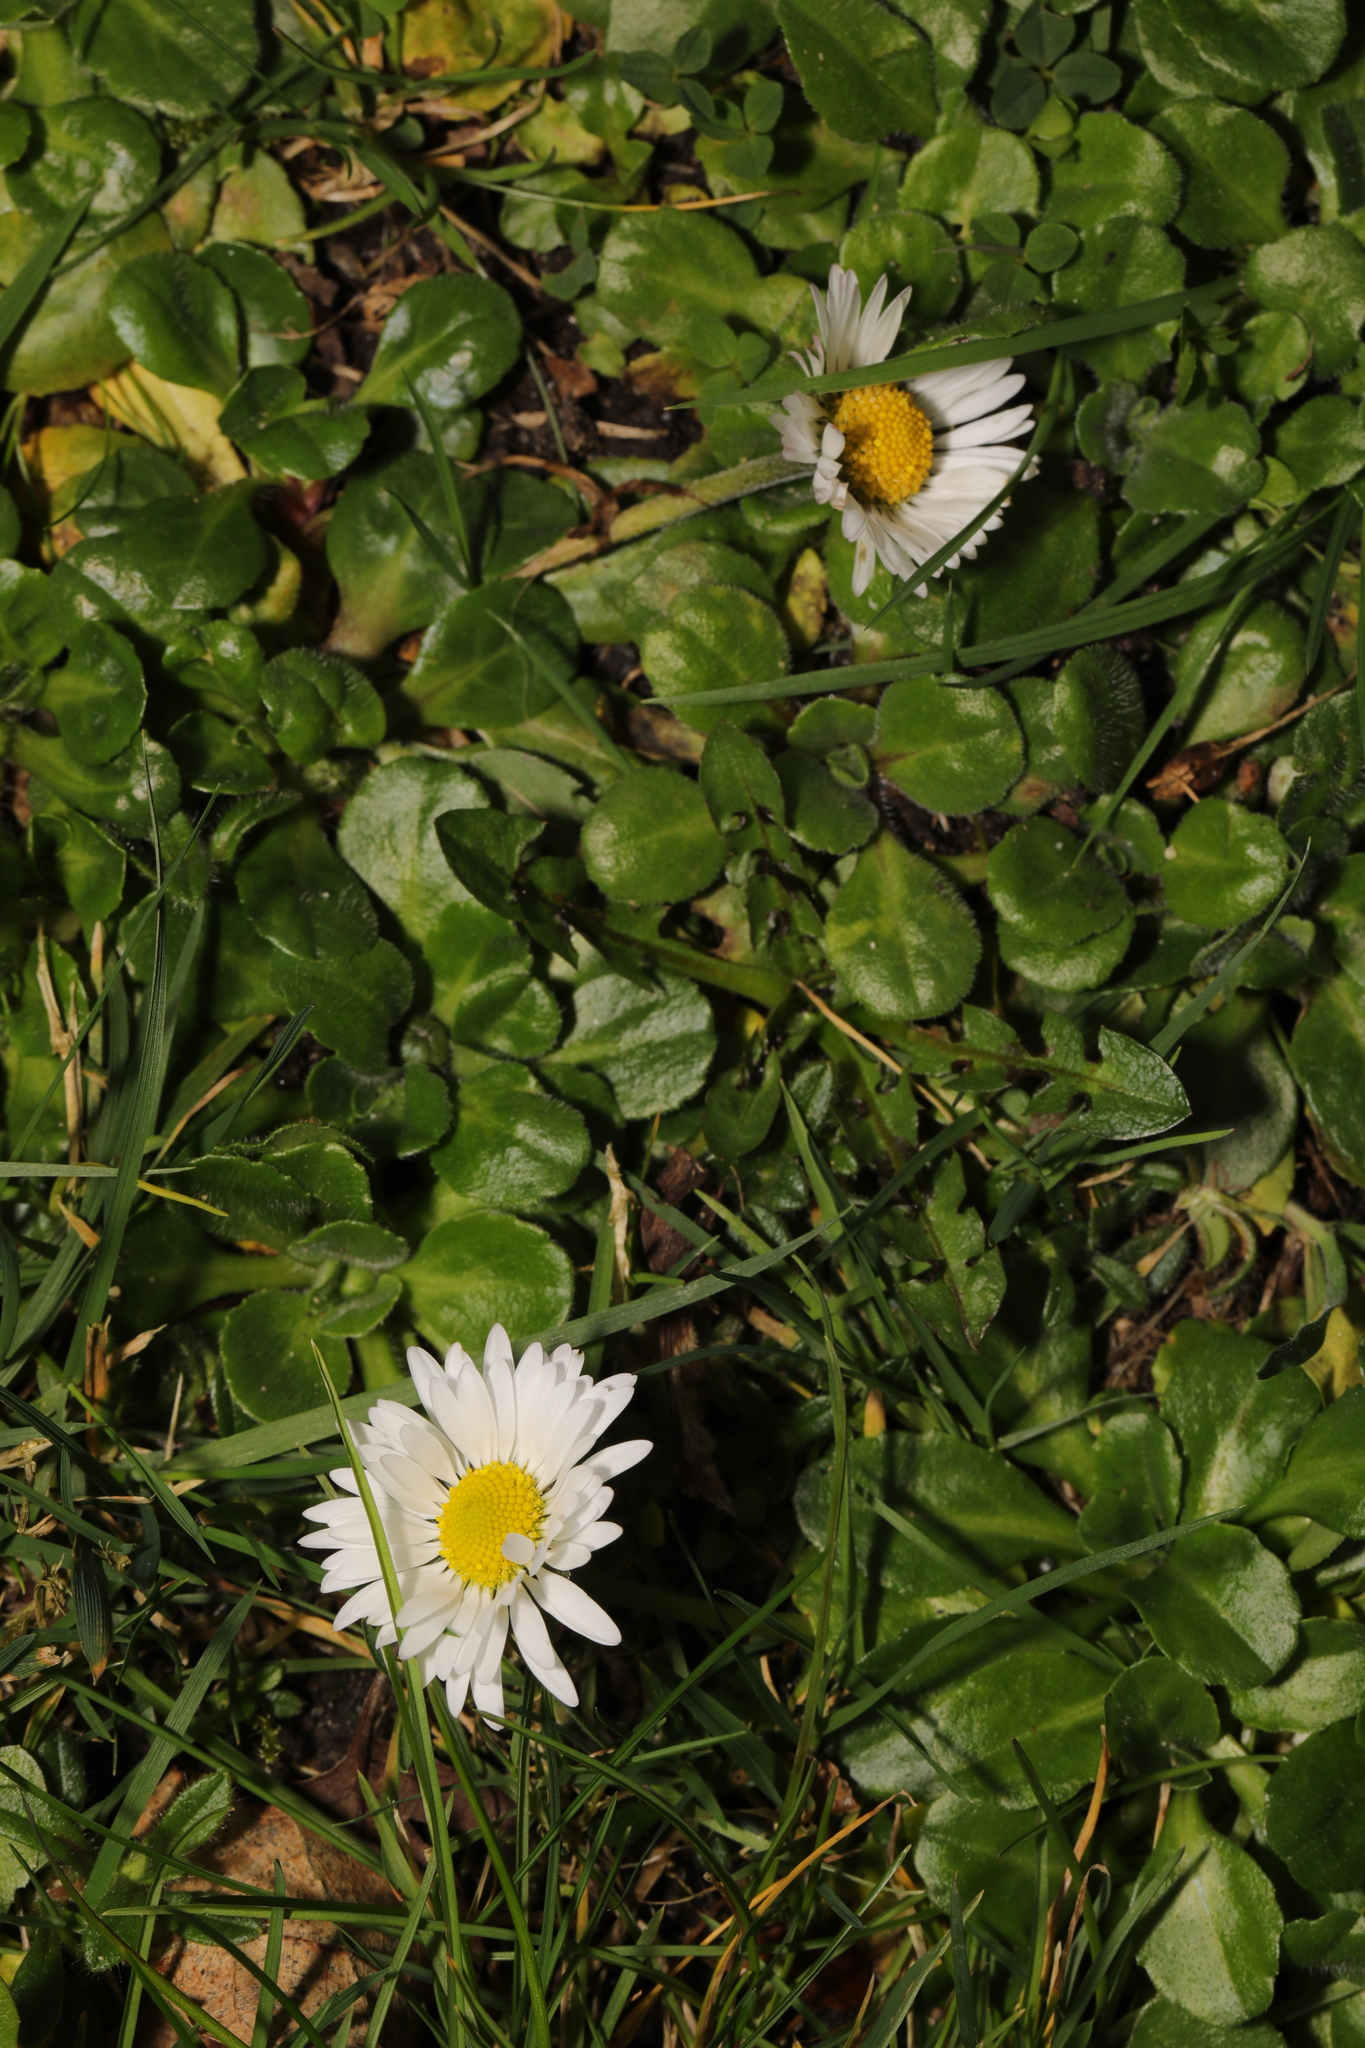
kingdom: Plantae
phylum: Tracheophyta
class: Magnoliopsida
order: Asterales
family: Asteraceae
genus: Bellis
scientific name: Bellis perennis
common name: Lawndaisy
